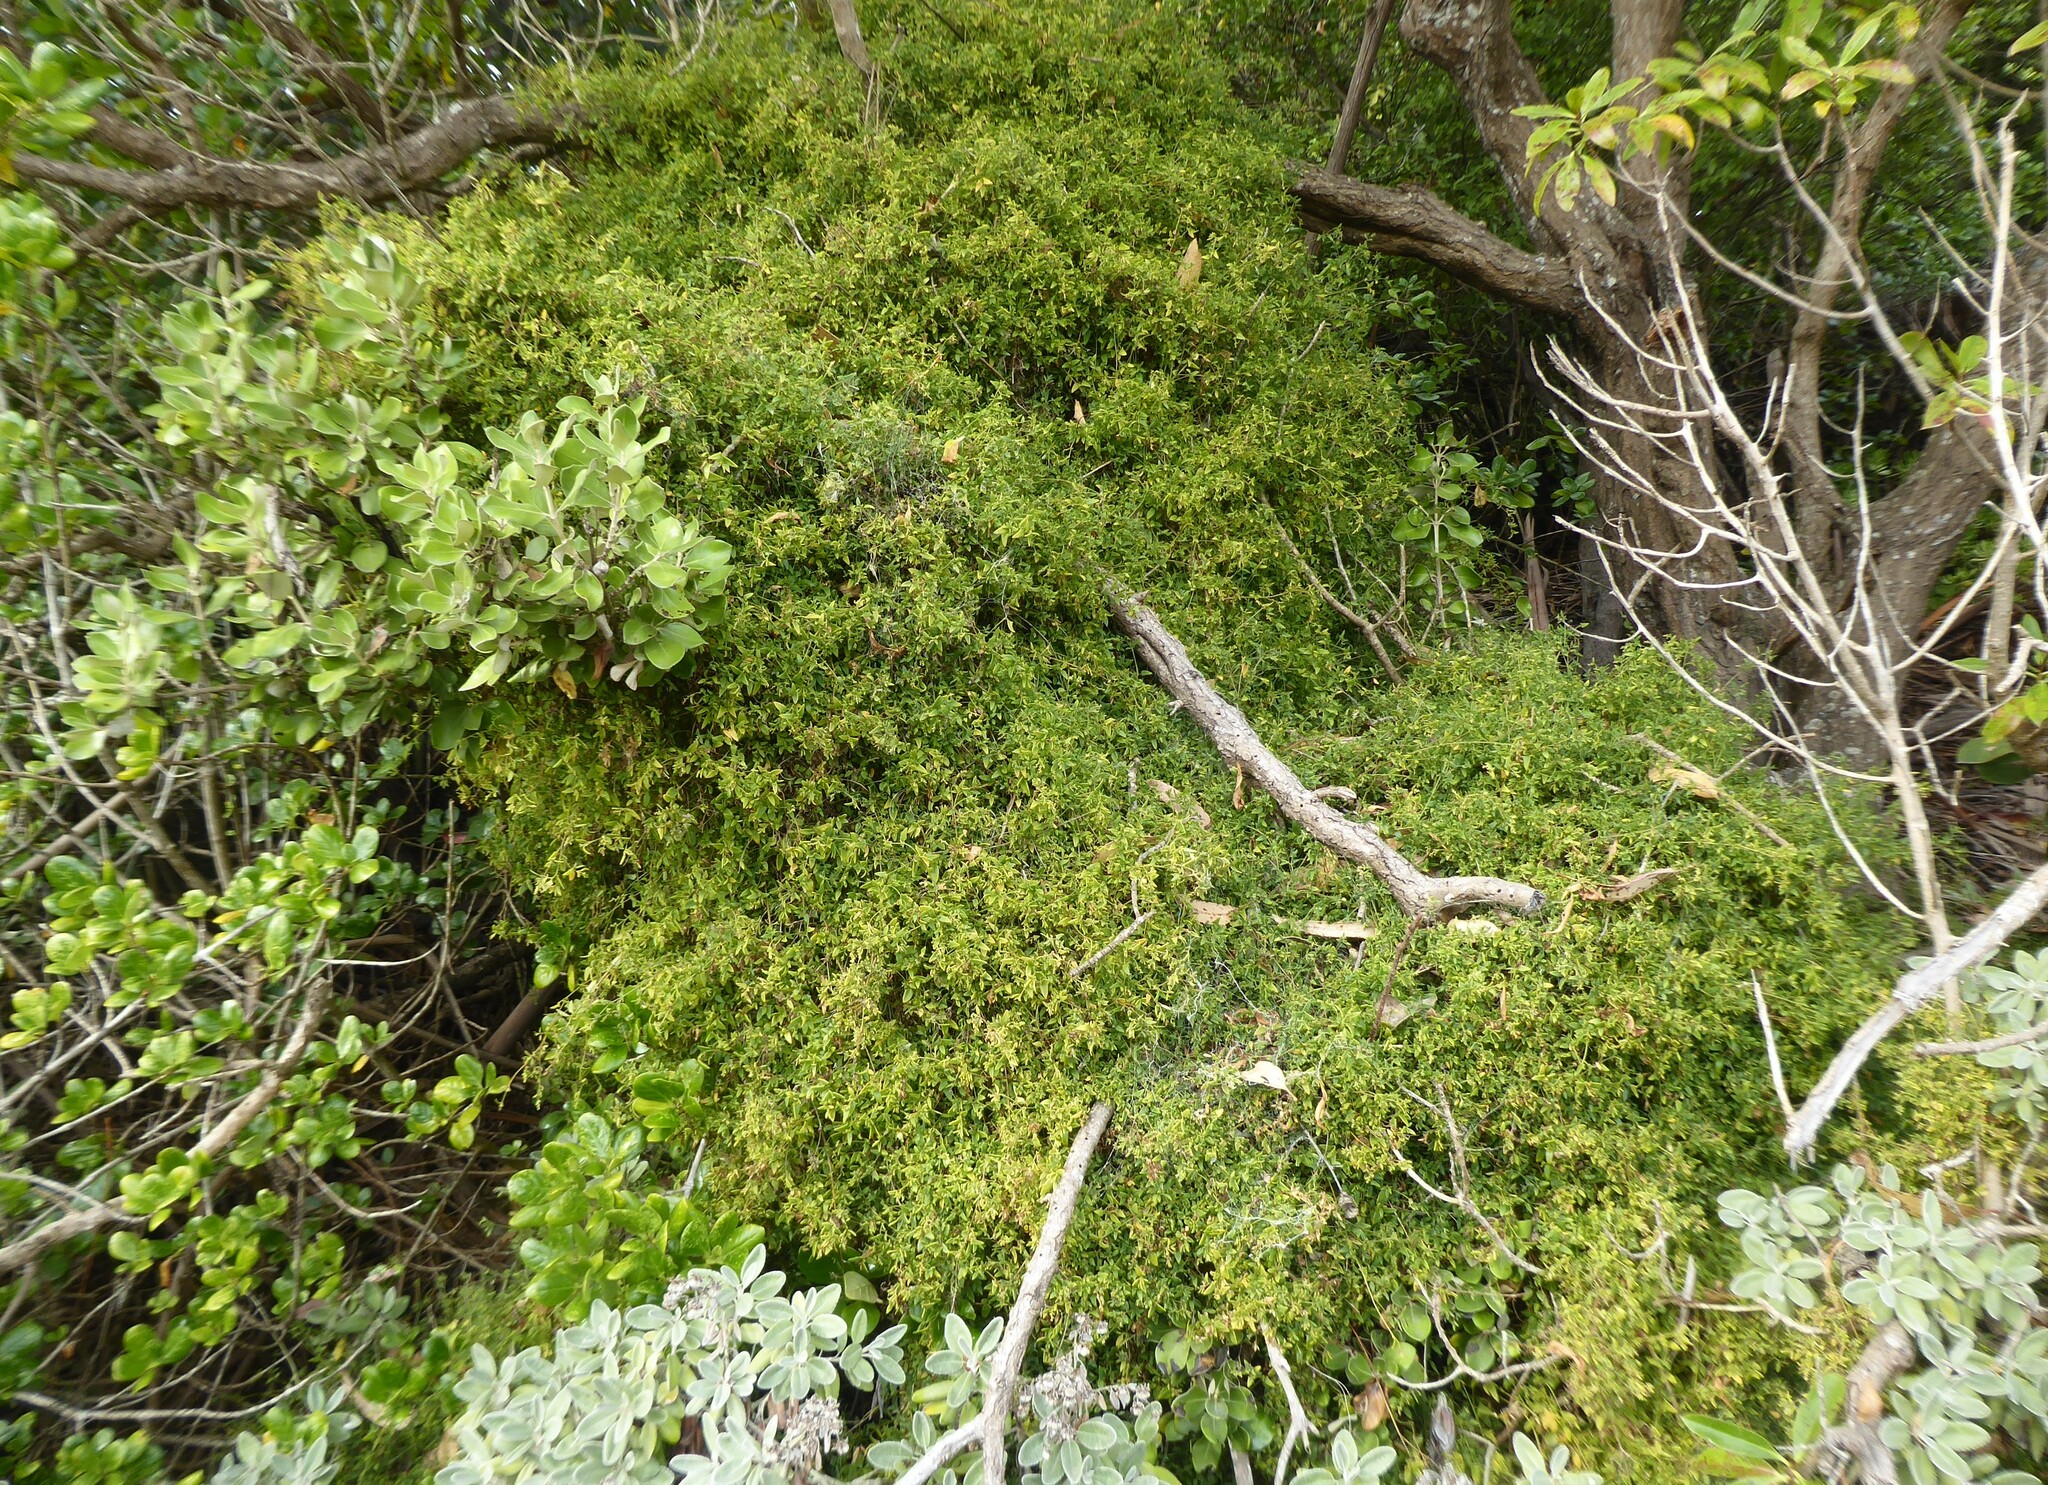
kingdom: Plantae
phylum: Tracheophyta
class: Magnoliopsida
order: Caryophyllales
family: Amaranthaceae
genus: Chenopodium
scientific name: Chenopodium nutans
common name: Climbing-saltbush
